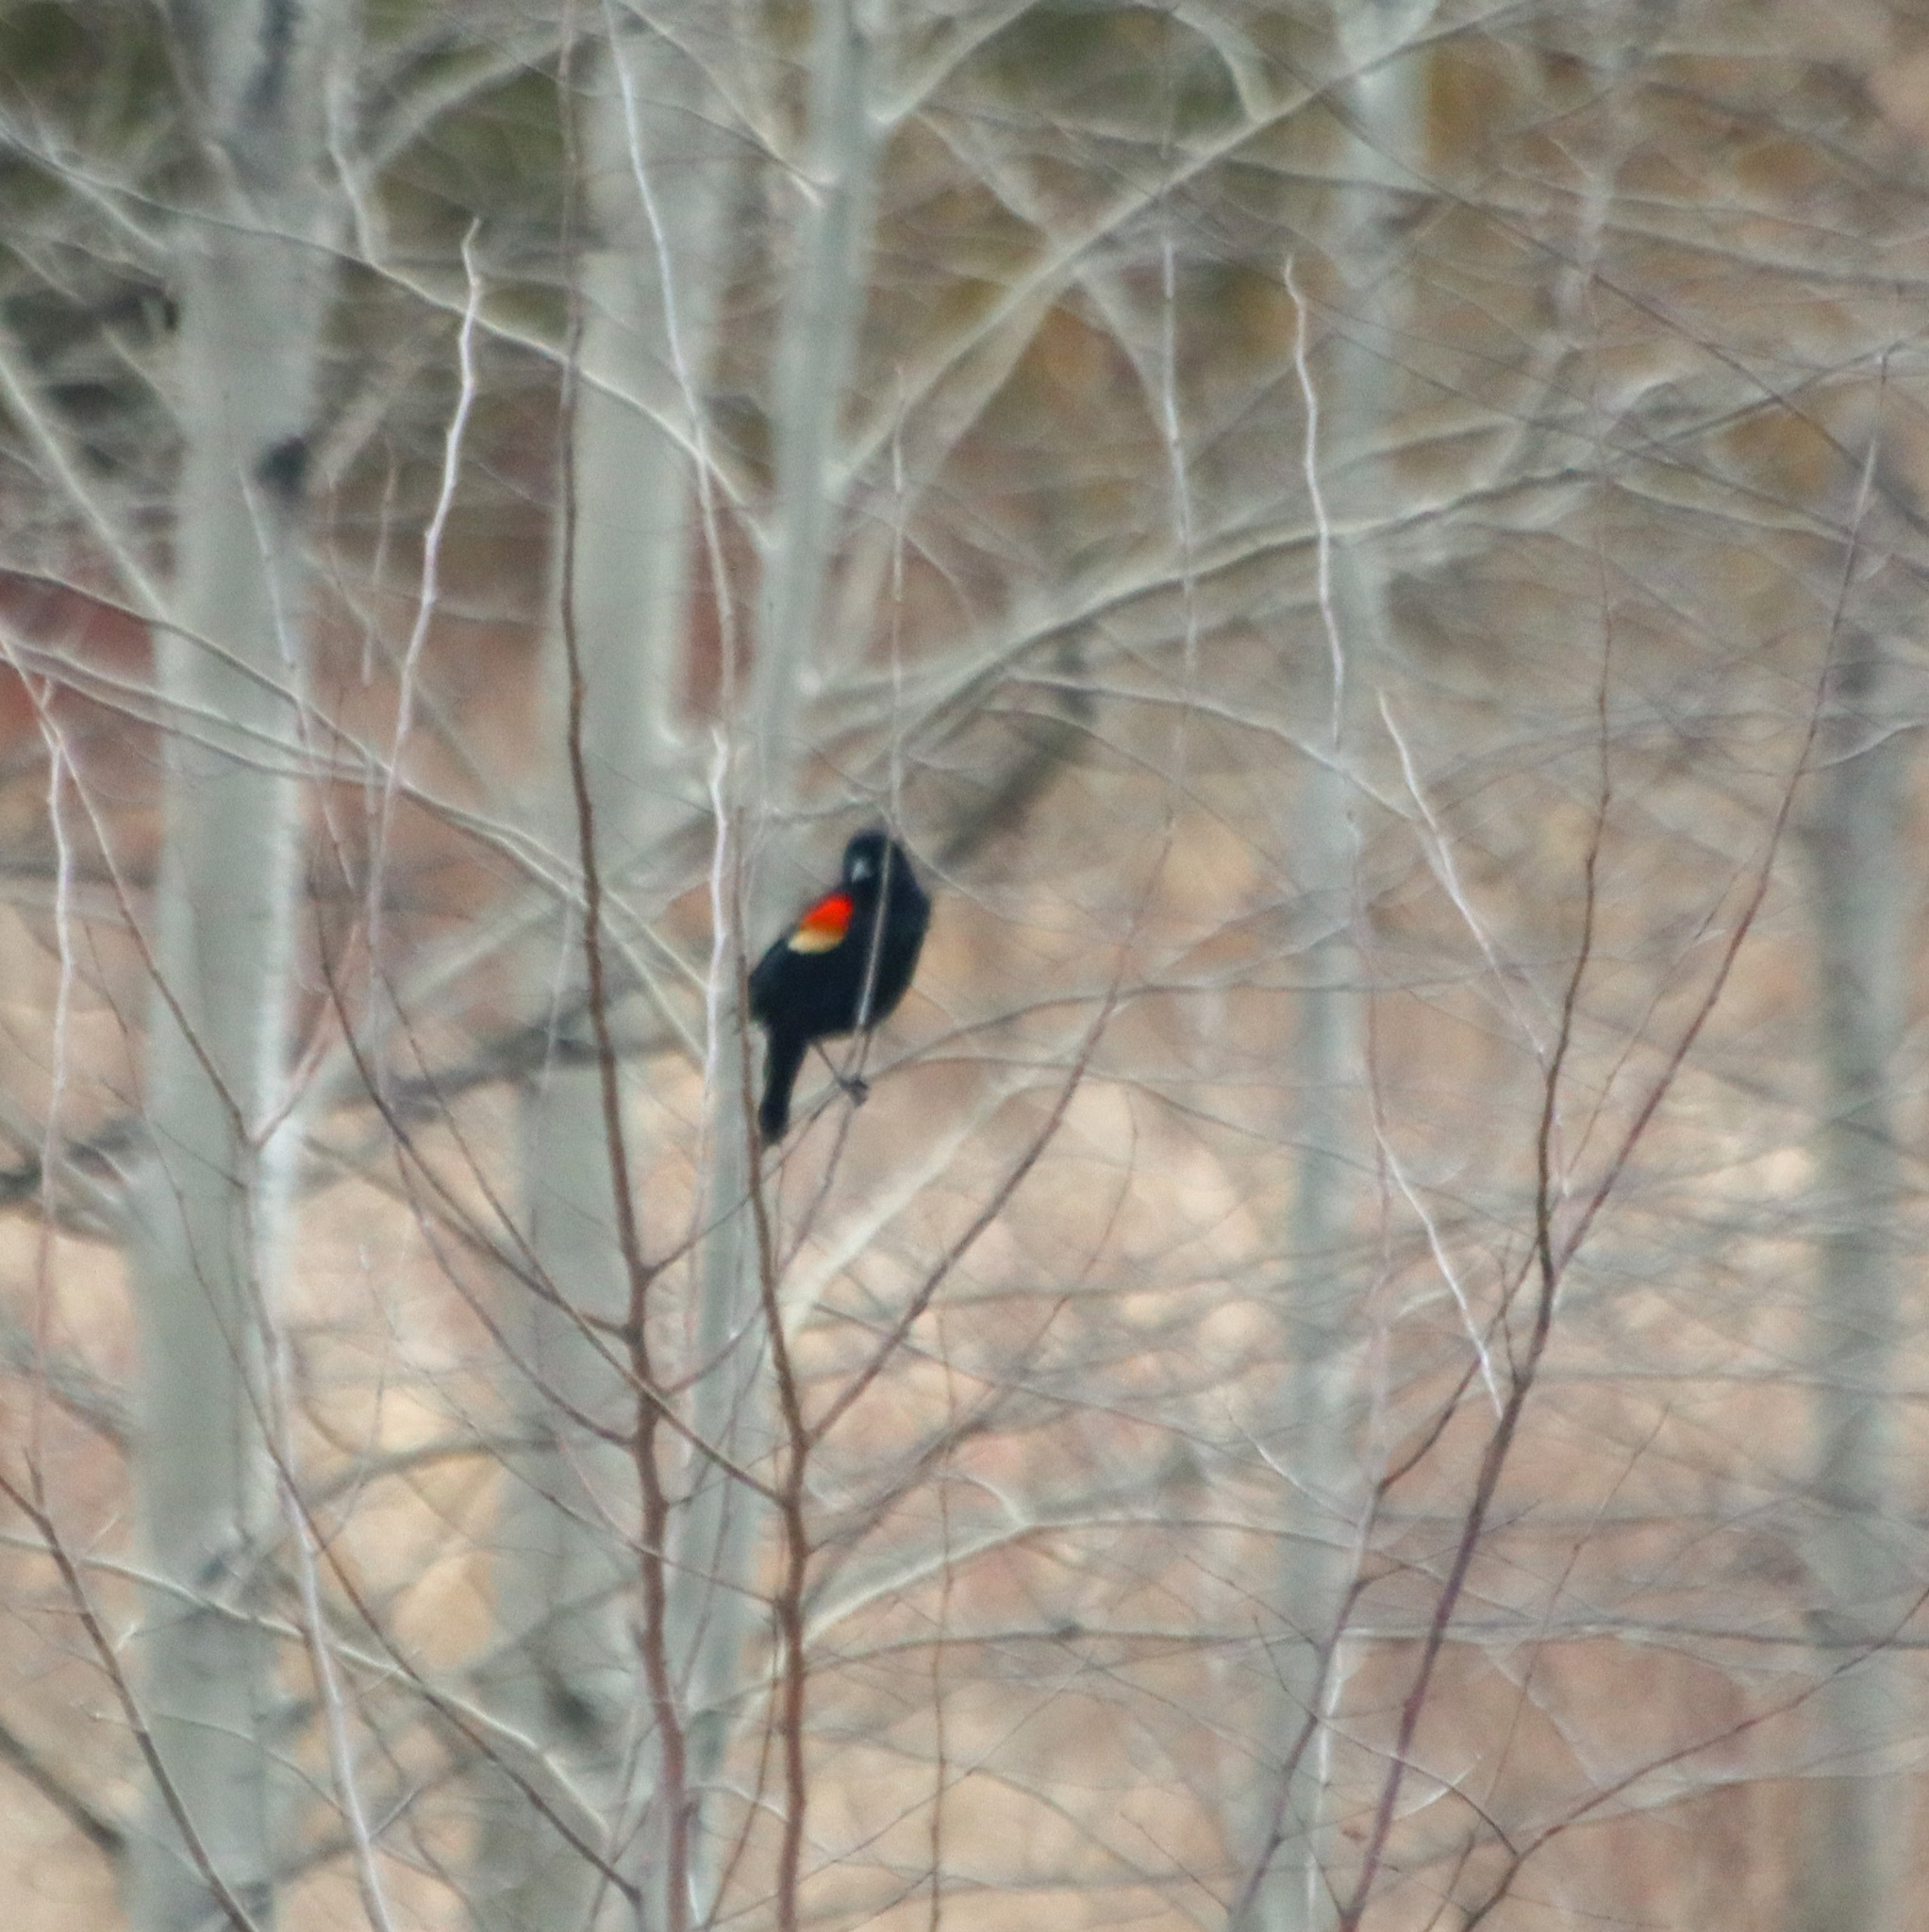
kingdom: Animalia
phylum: Chordata
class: Aves
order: Passeriformes
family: Icteridae
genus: Agelaius
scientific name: Agelaius phoeniceus
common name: Red-winged blackbird
